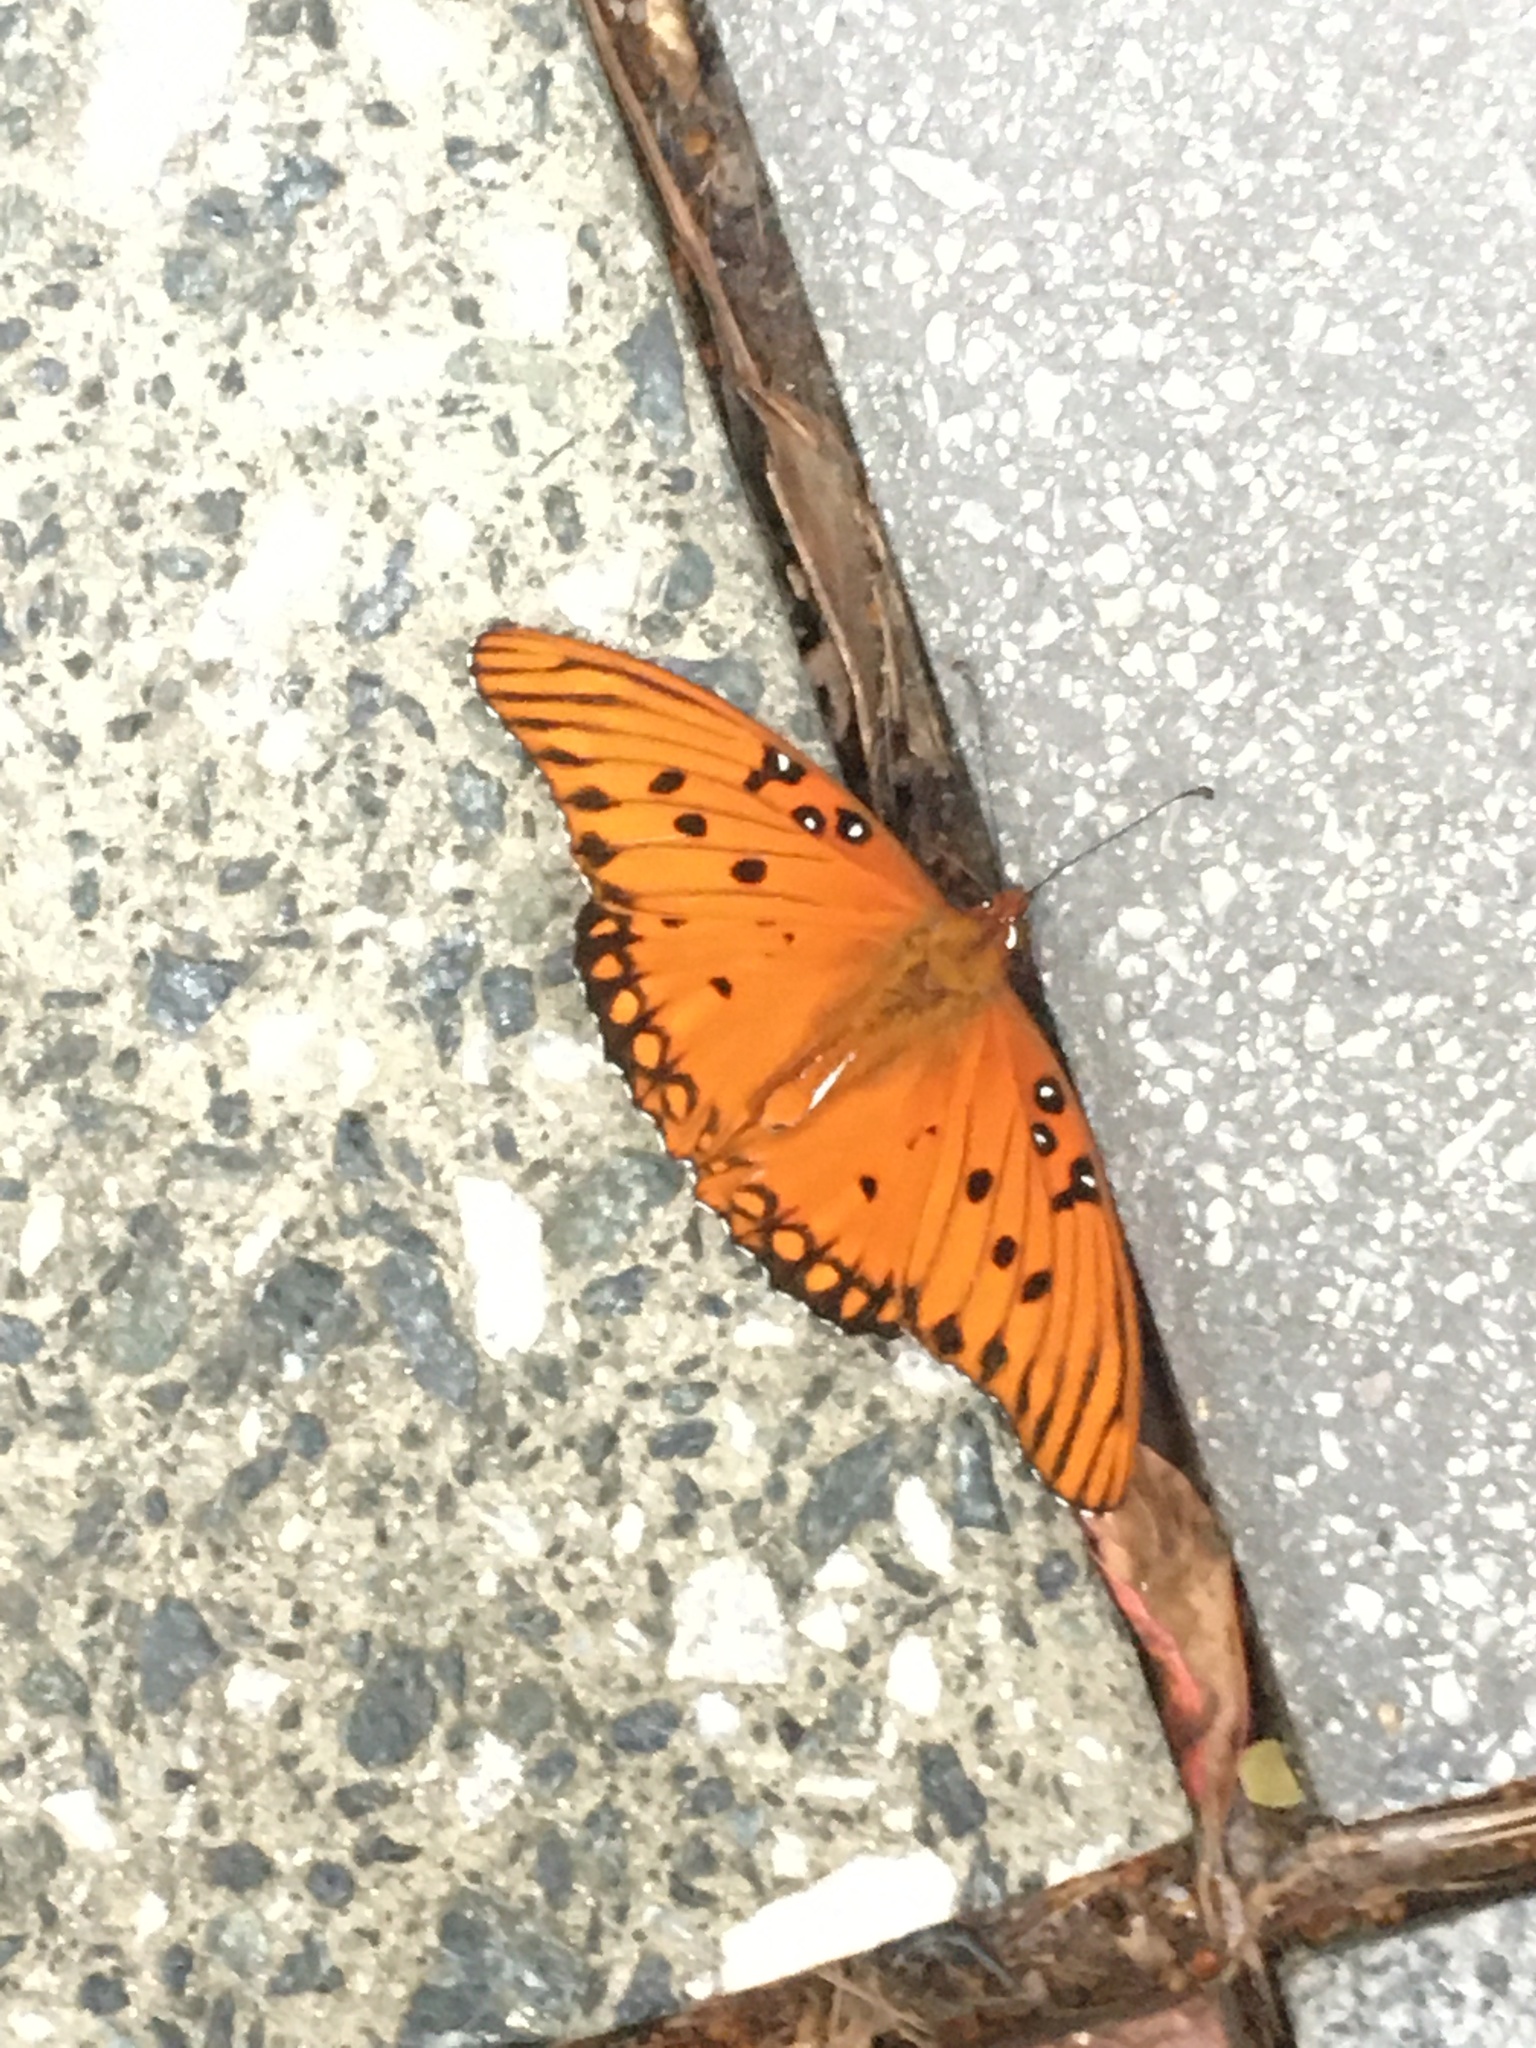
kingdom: Animalia
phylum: Arthropoda
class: Insecta
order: Lepidoptera
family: Nymphalidae
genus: Dione
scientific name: Dione vanillae
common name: Gulf fritillary
